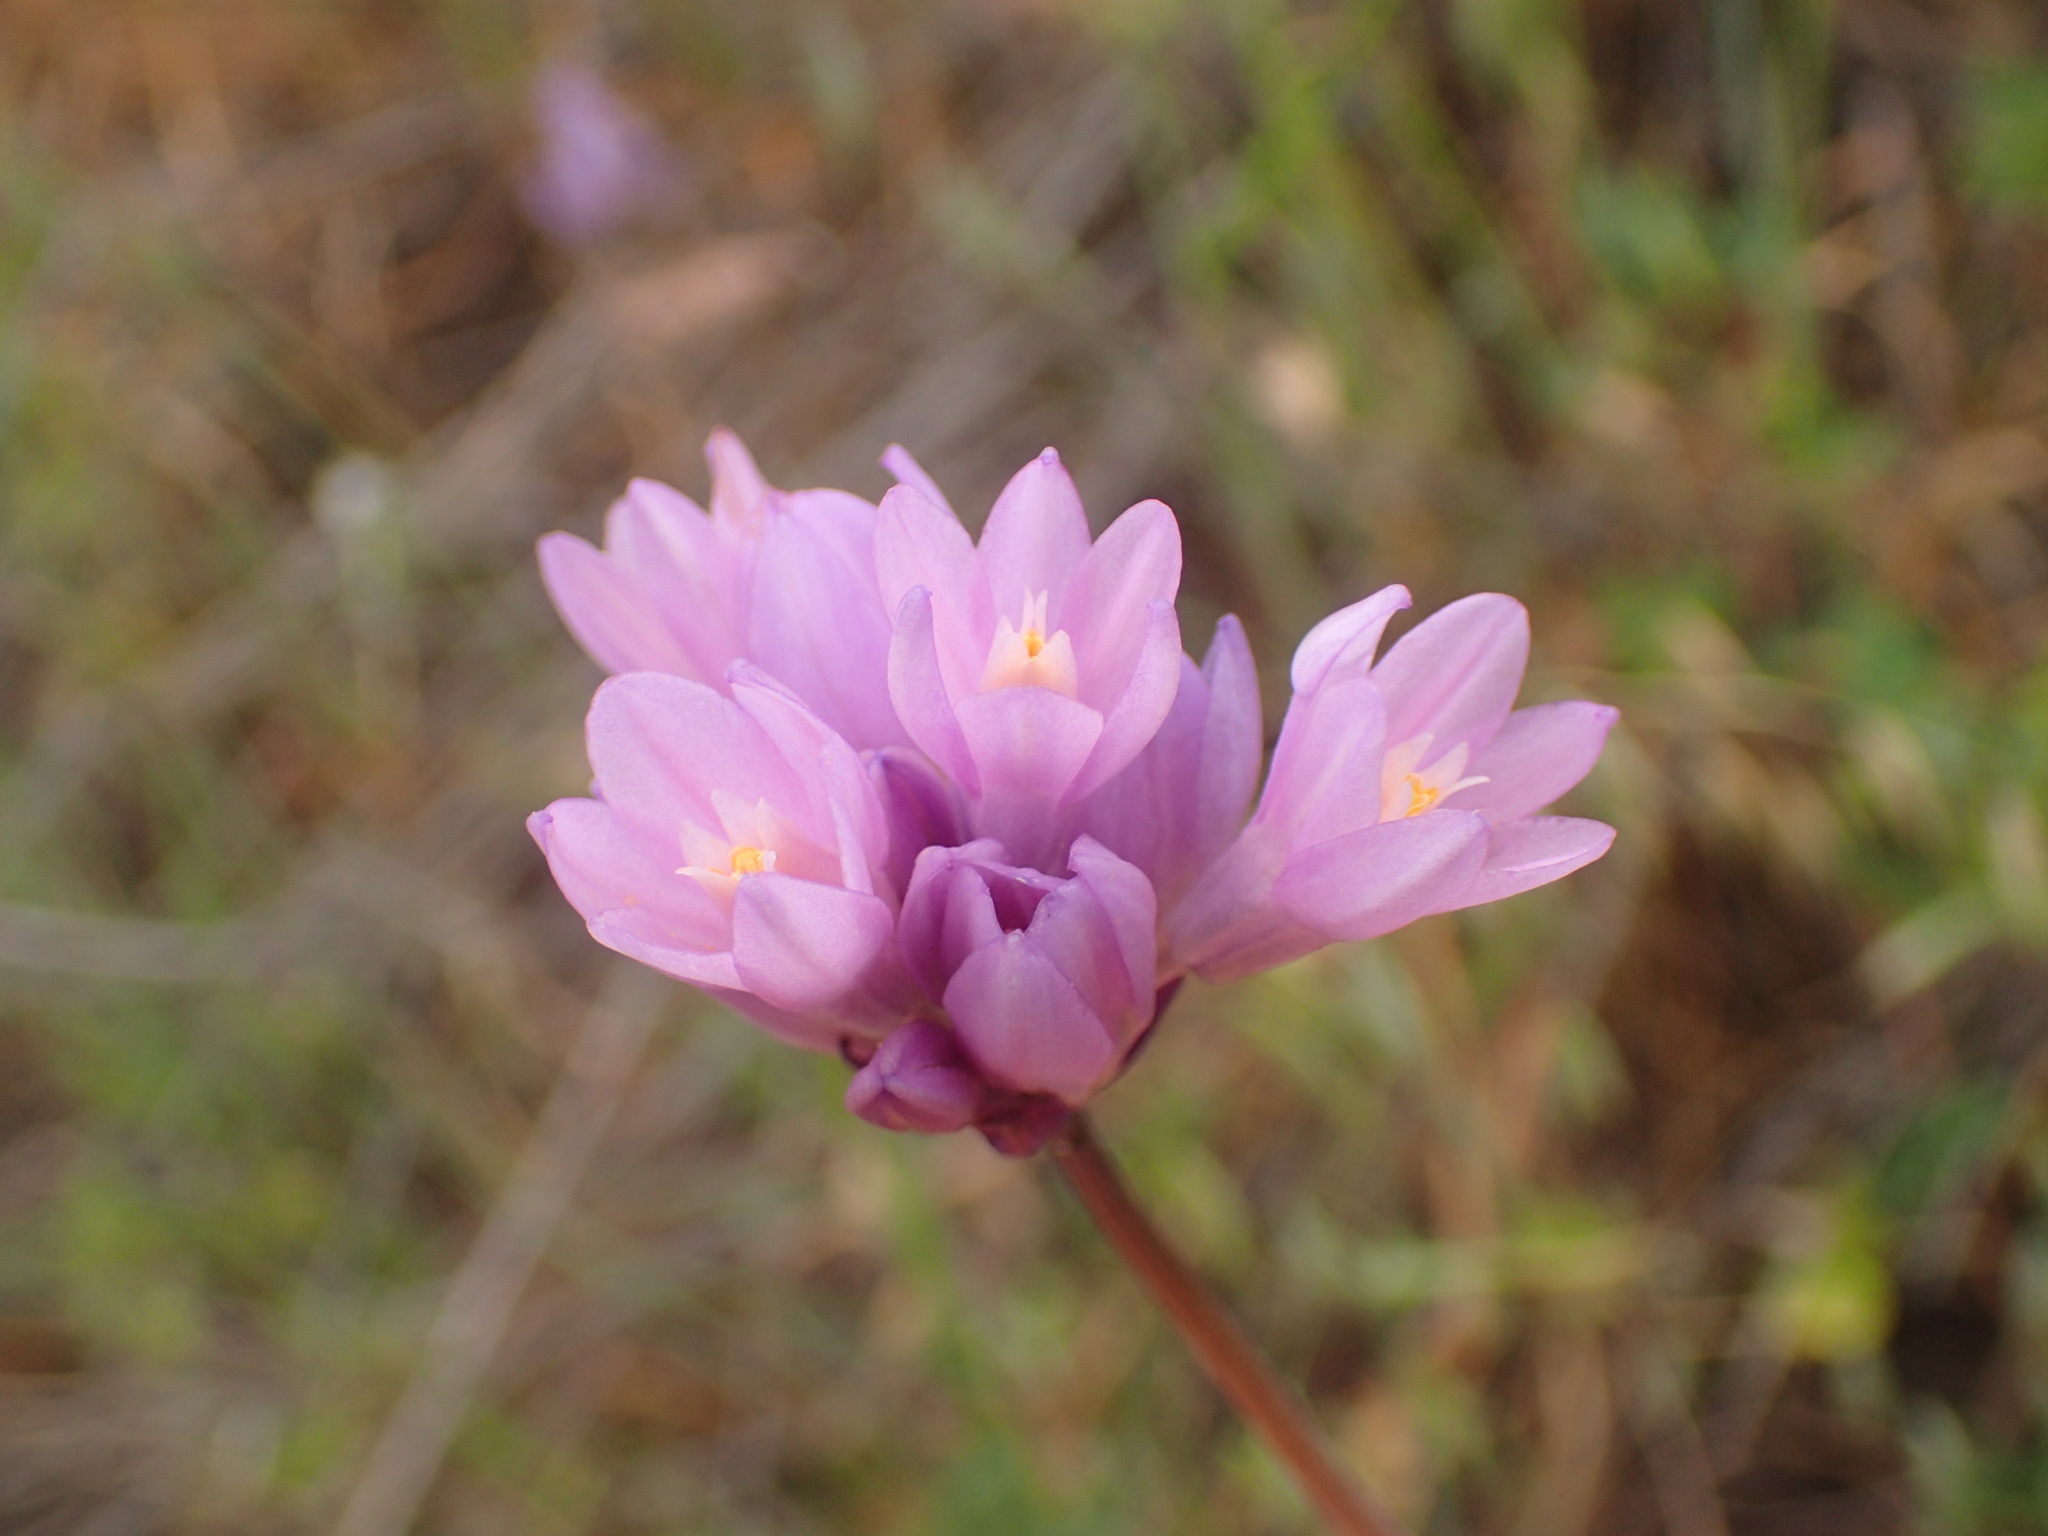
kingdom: Plantae
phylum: Tracheophyta
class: Liliopsida
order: Asparagales
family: Asparagaceae
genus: Dipterostemon
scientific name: Dipterostemon capitatus
